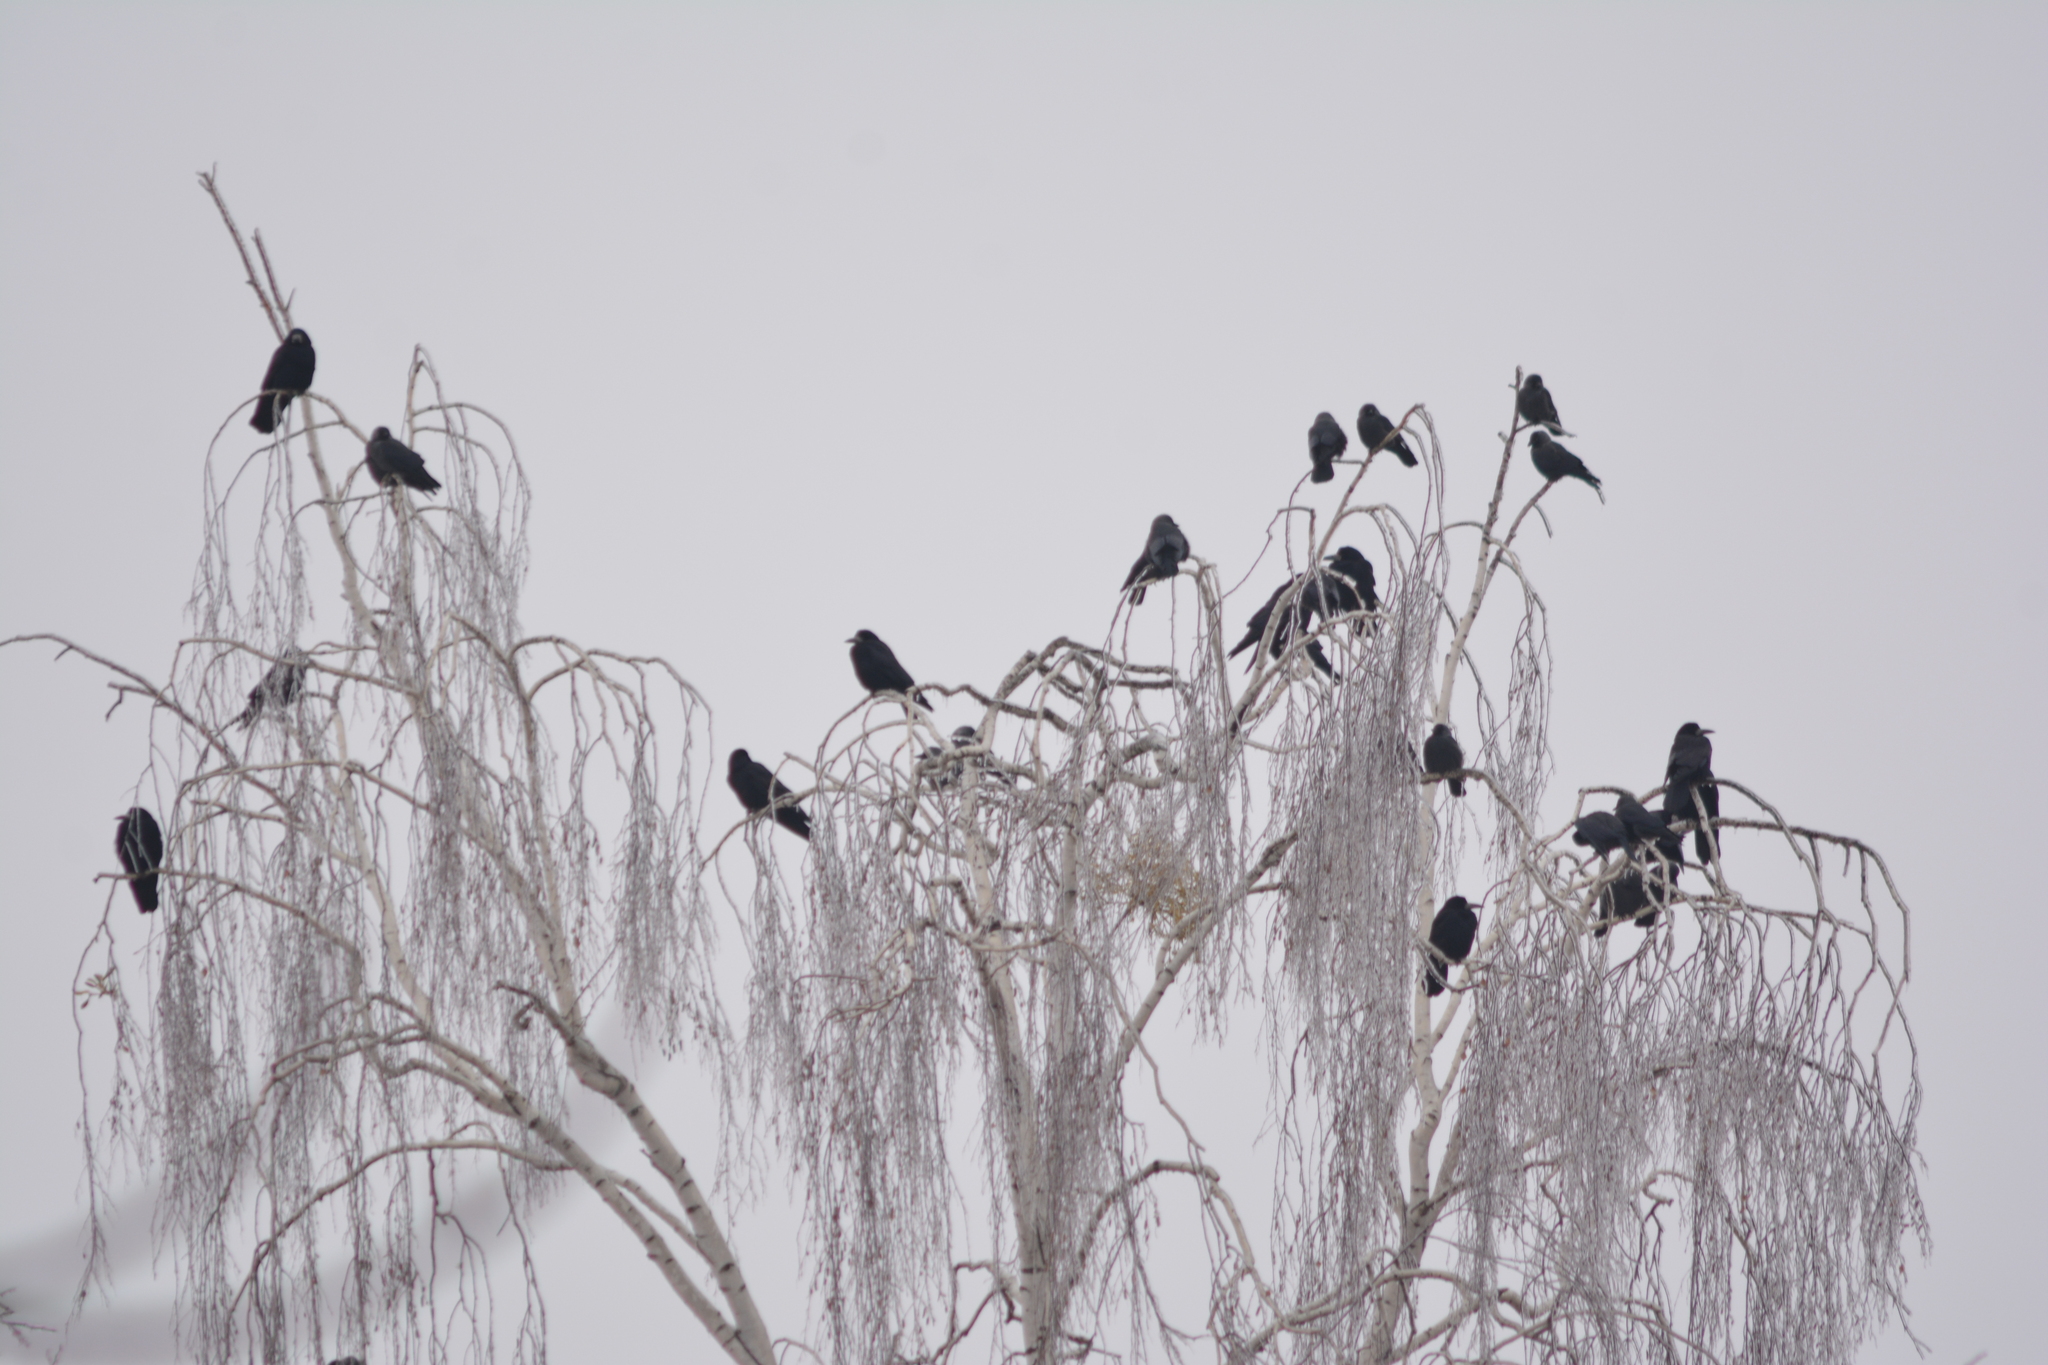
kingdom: Animalia
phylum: Chordata
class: Aves
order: Passeriformes
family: Corvidae
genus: Corvus
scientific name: Corvus frugilegus
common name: Rook
